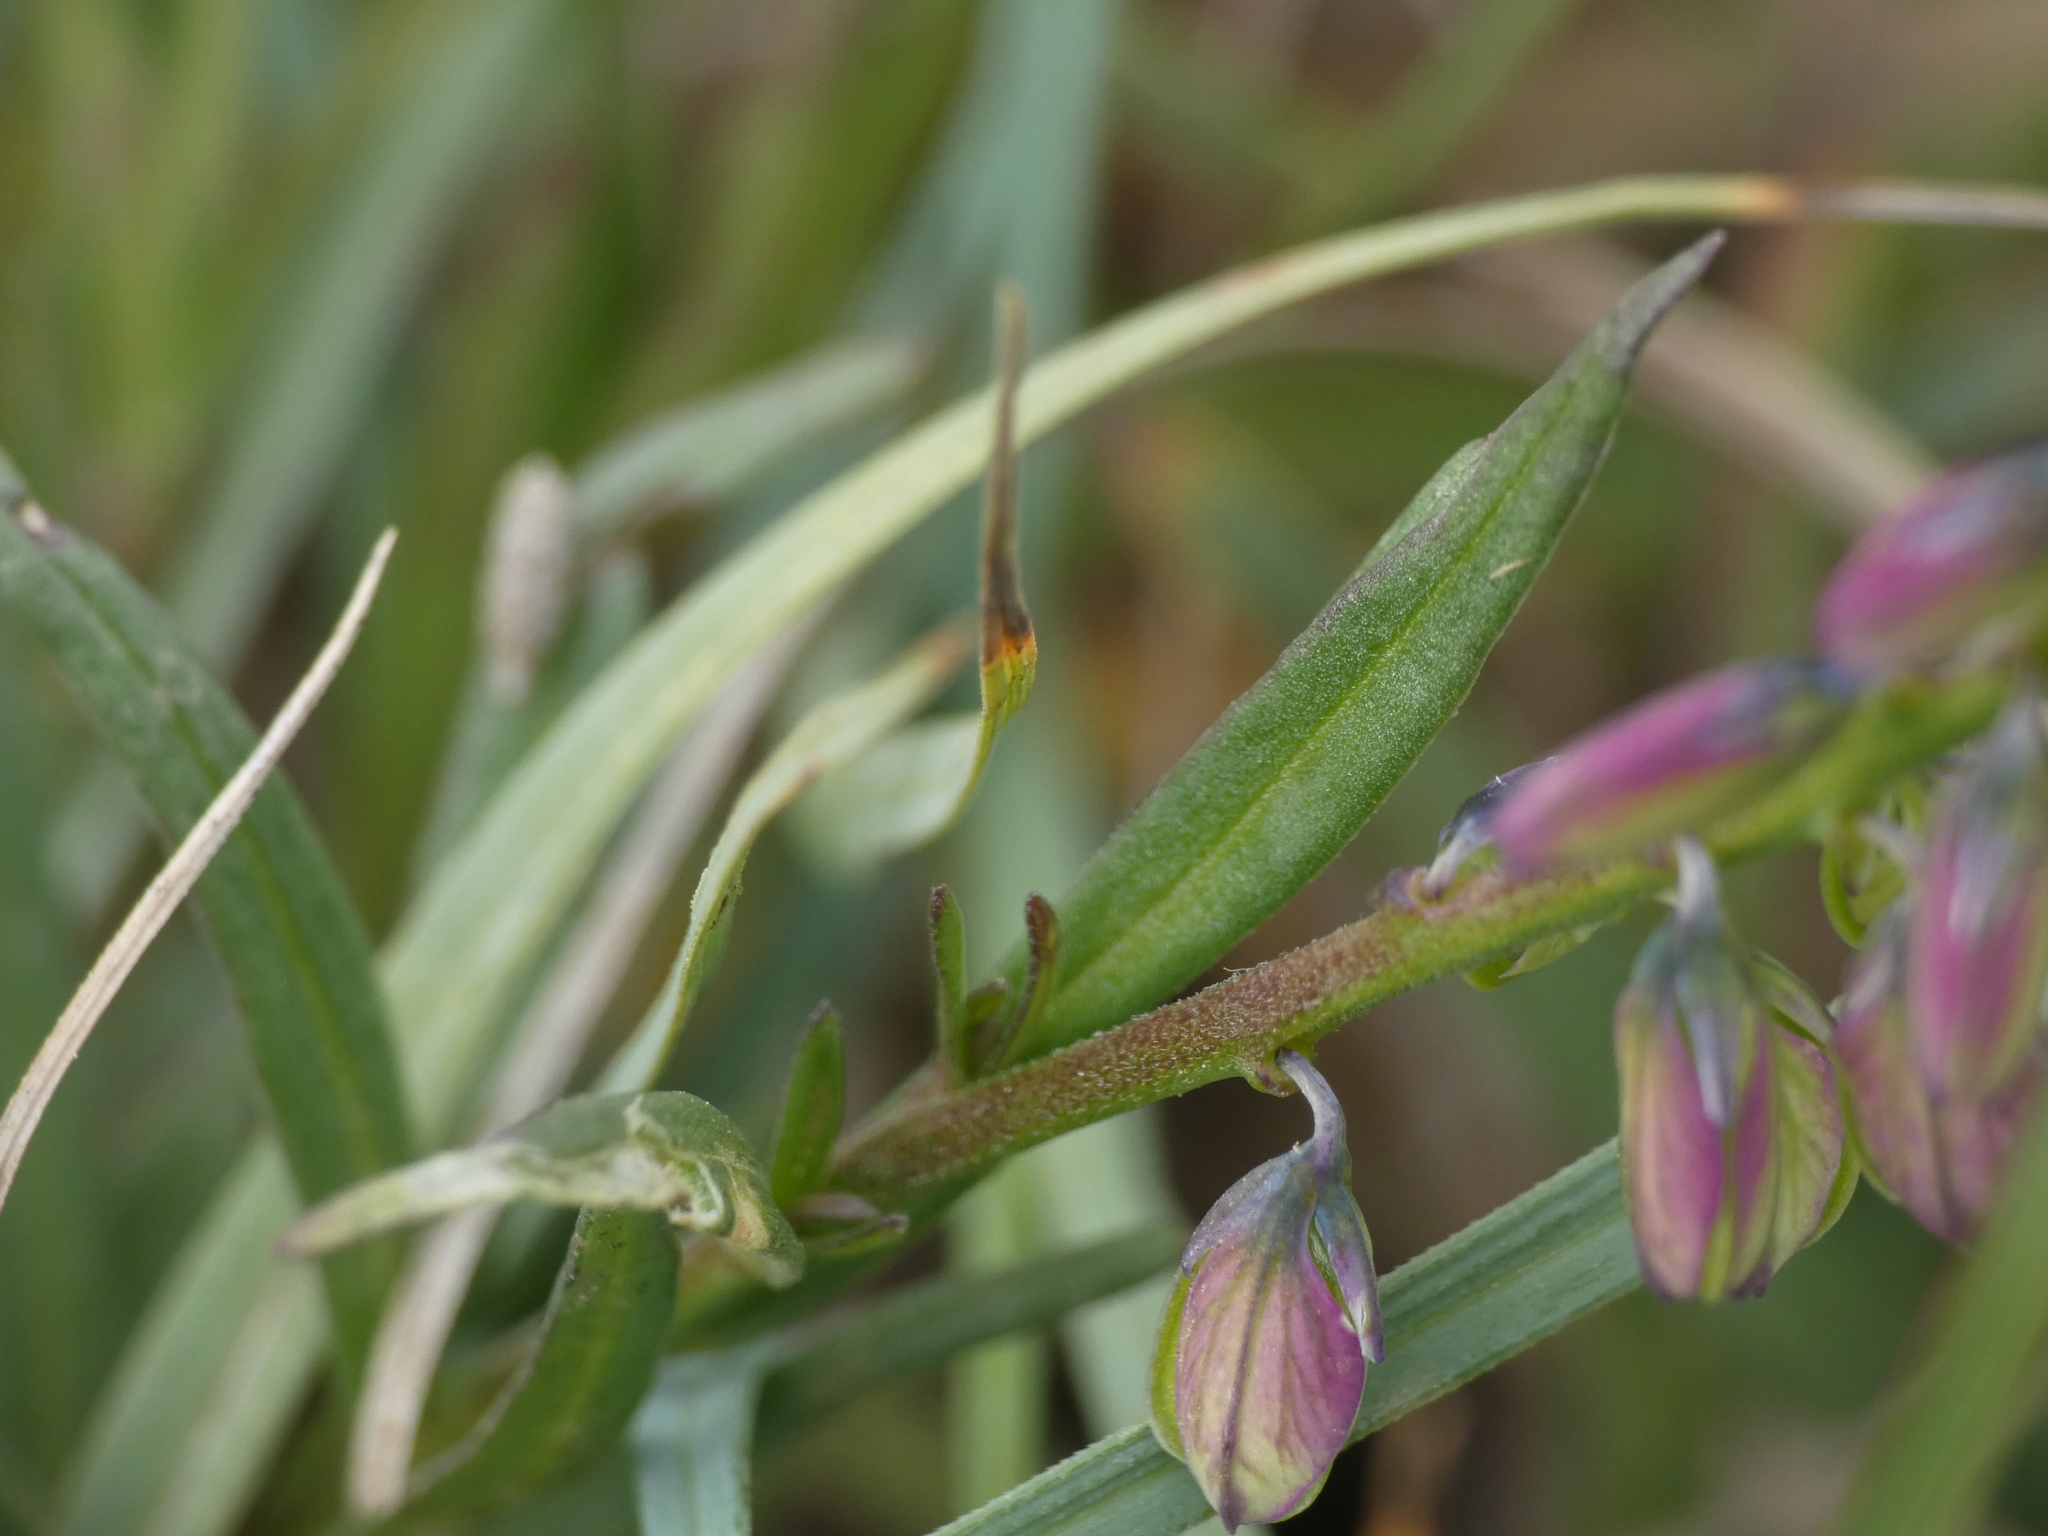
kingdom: Plantae
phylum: Tracheophyta
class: Magnoliopsida
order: Fabales
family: Polygalaceae
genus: Polygala
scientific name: Polygala comosa
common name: Tufted milkwort
